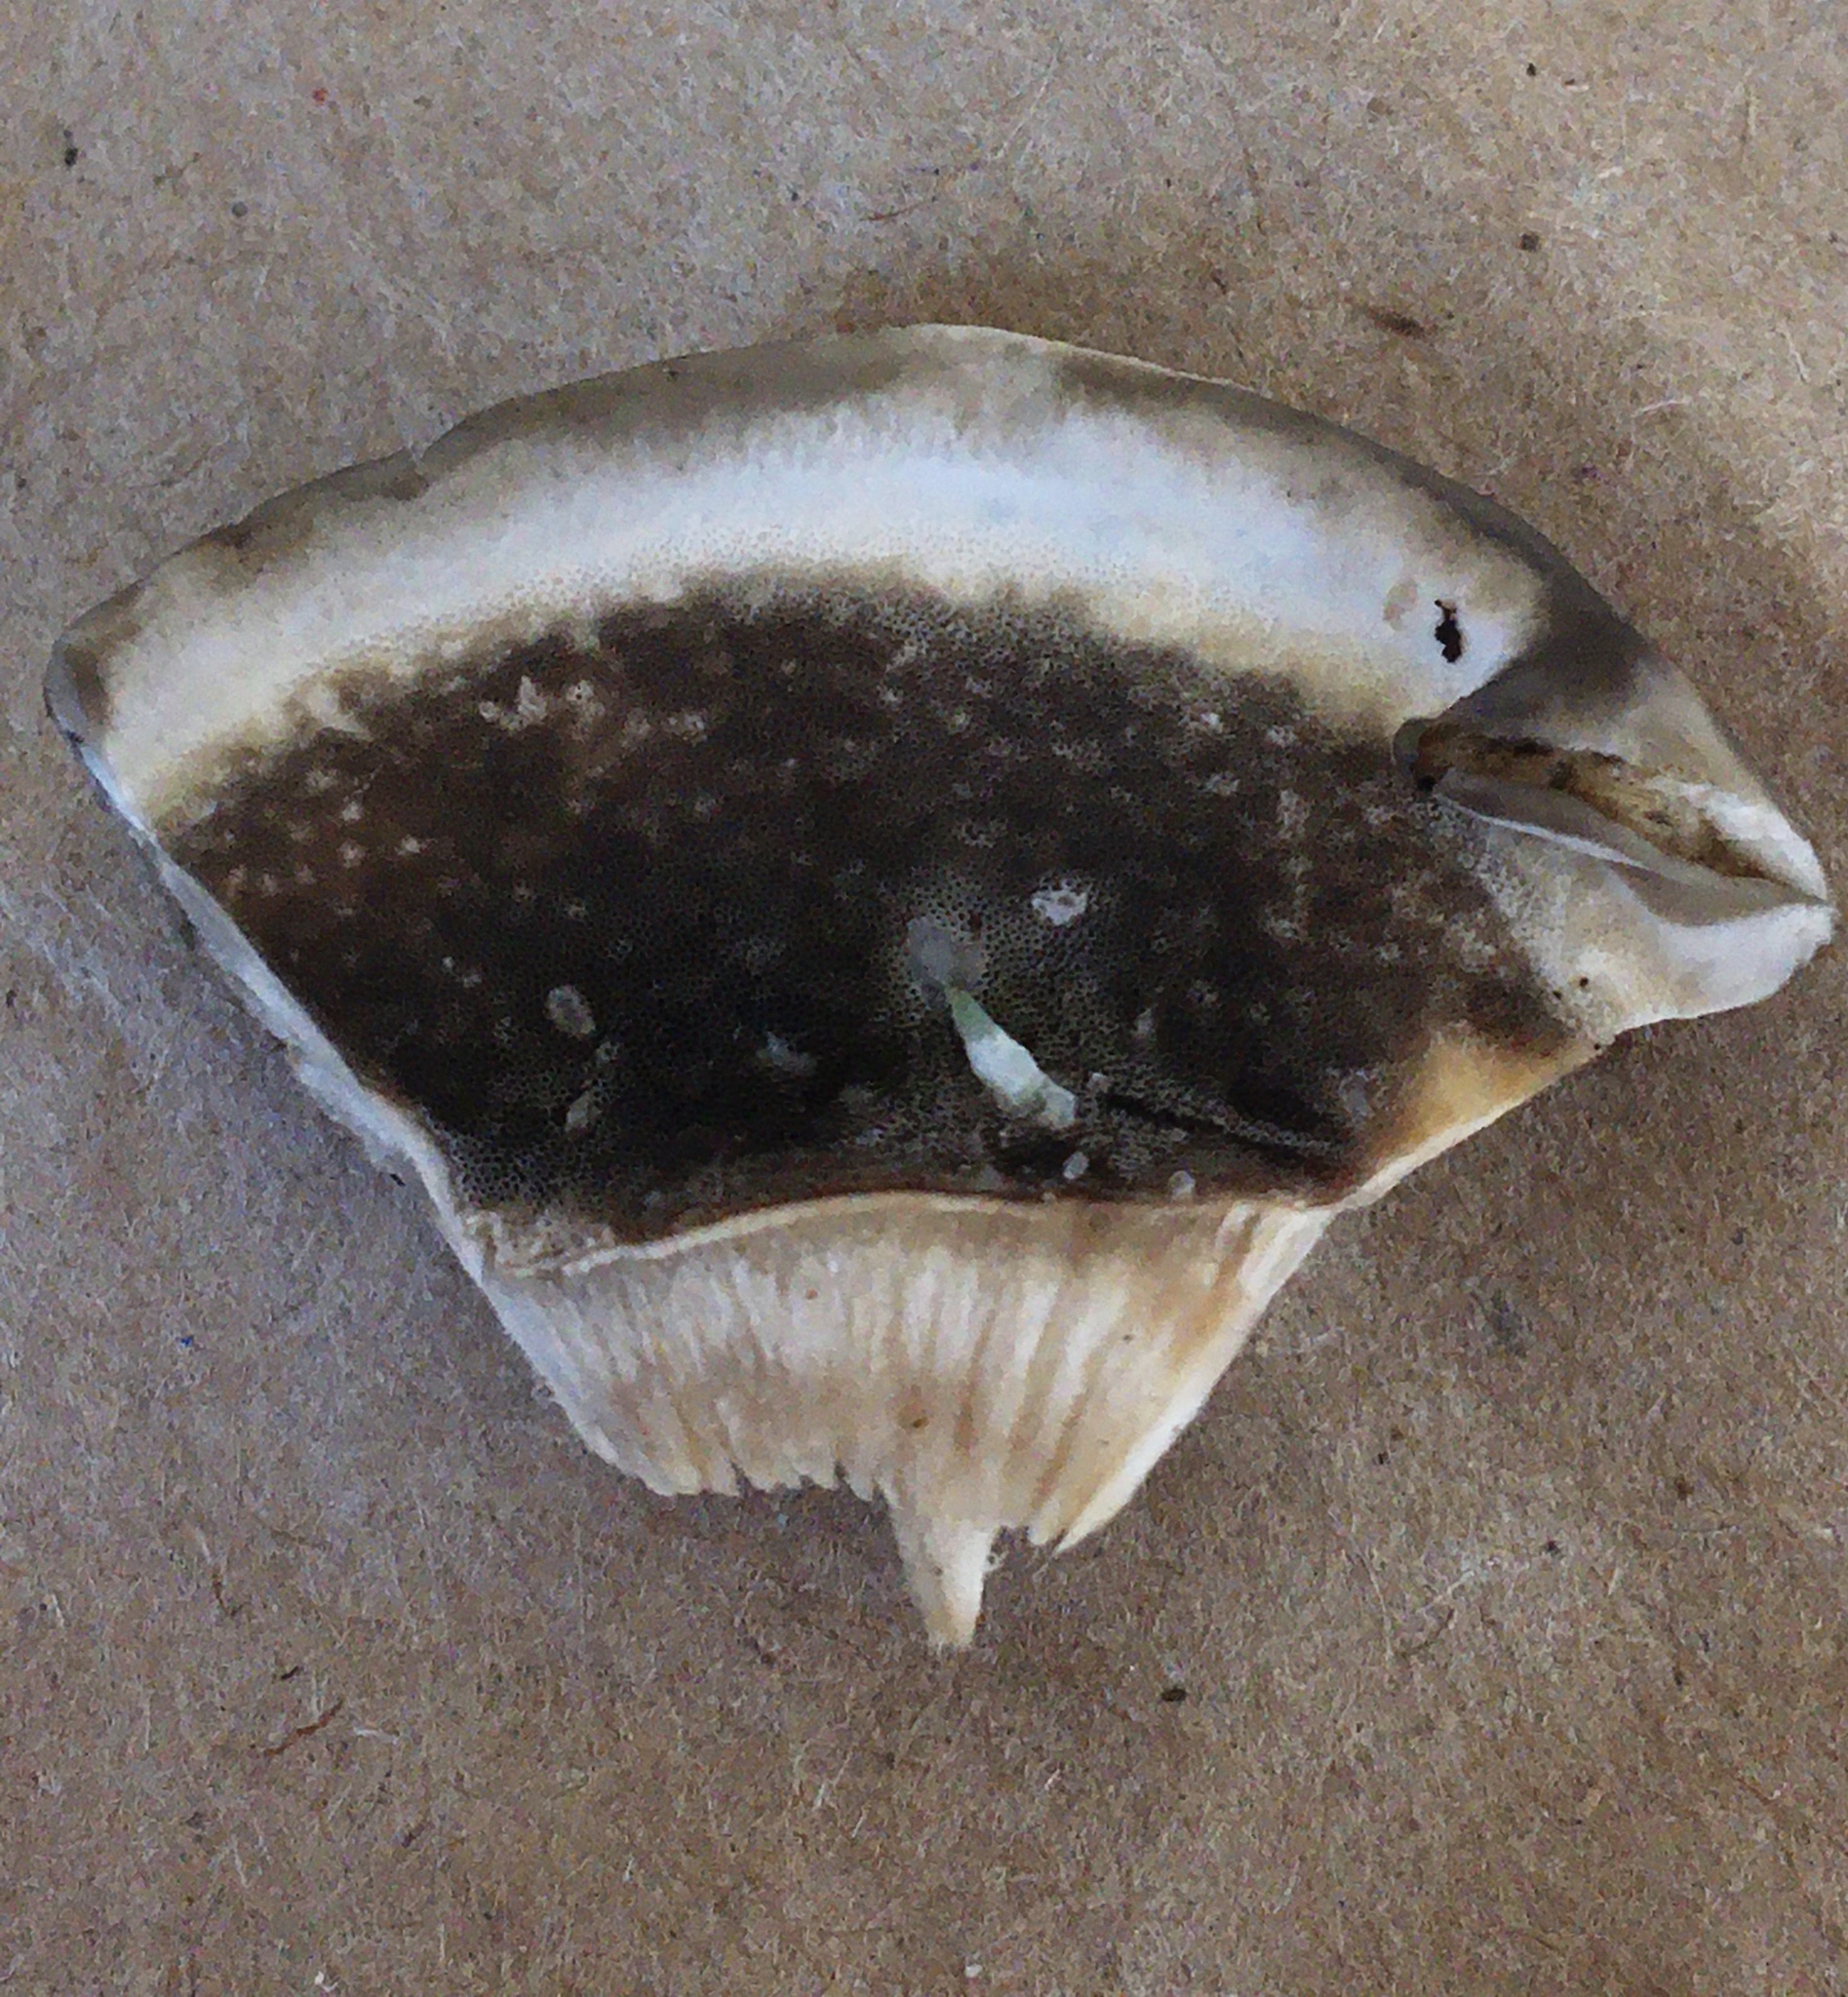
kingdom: Fungi
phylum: Basidiomycota
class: Agaricomycetes
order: Polyporales
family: Phanerochaetaceae
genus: Bjerkandera
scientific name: Bjerkandera adusta
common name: Smoky bracket
